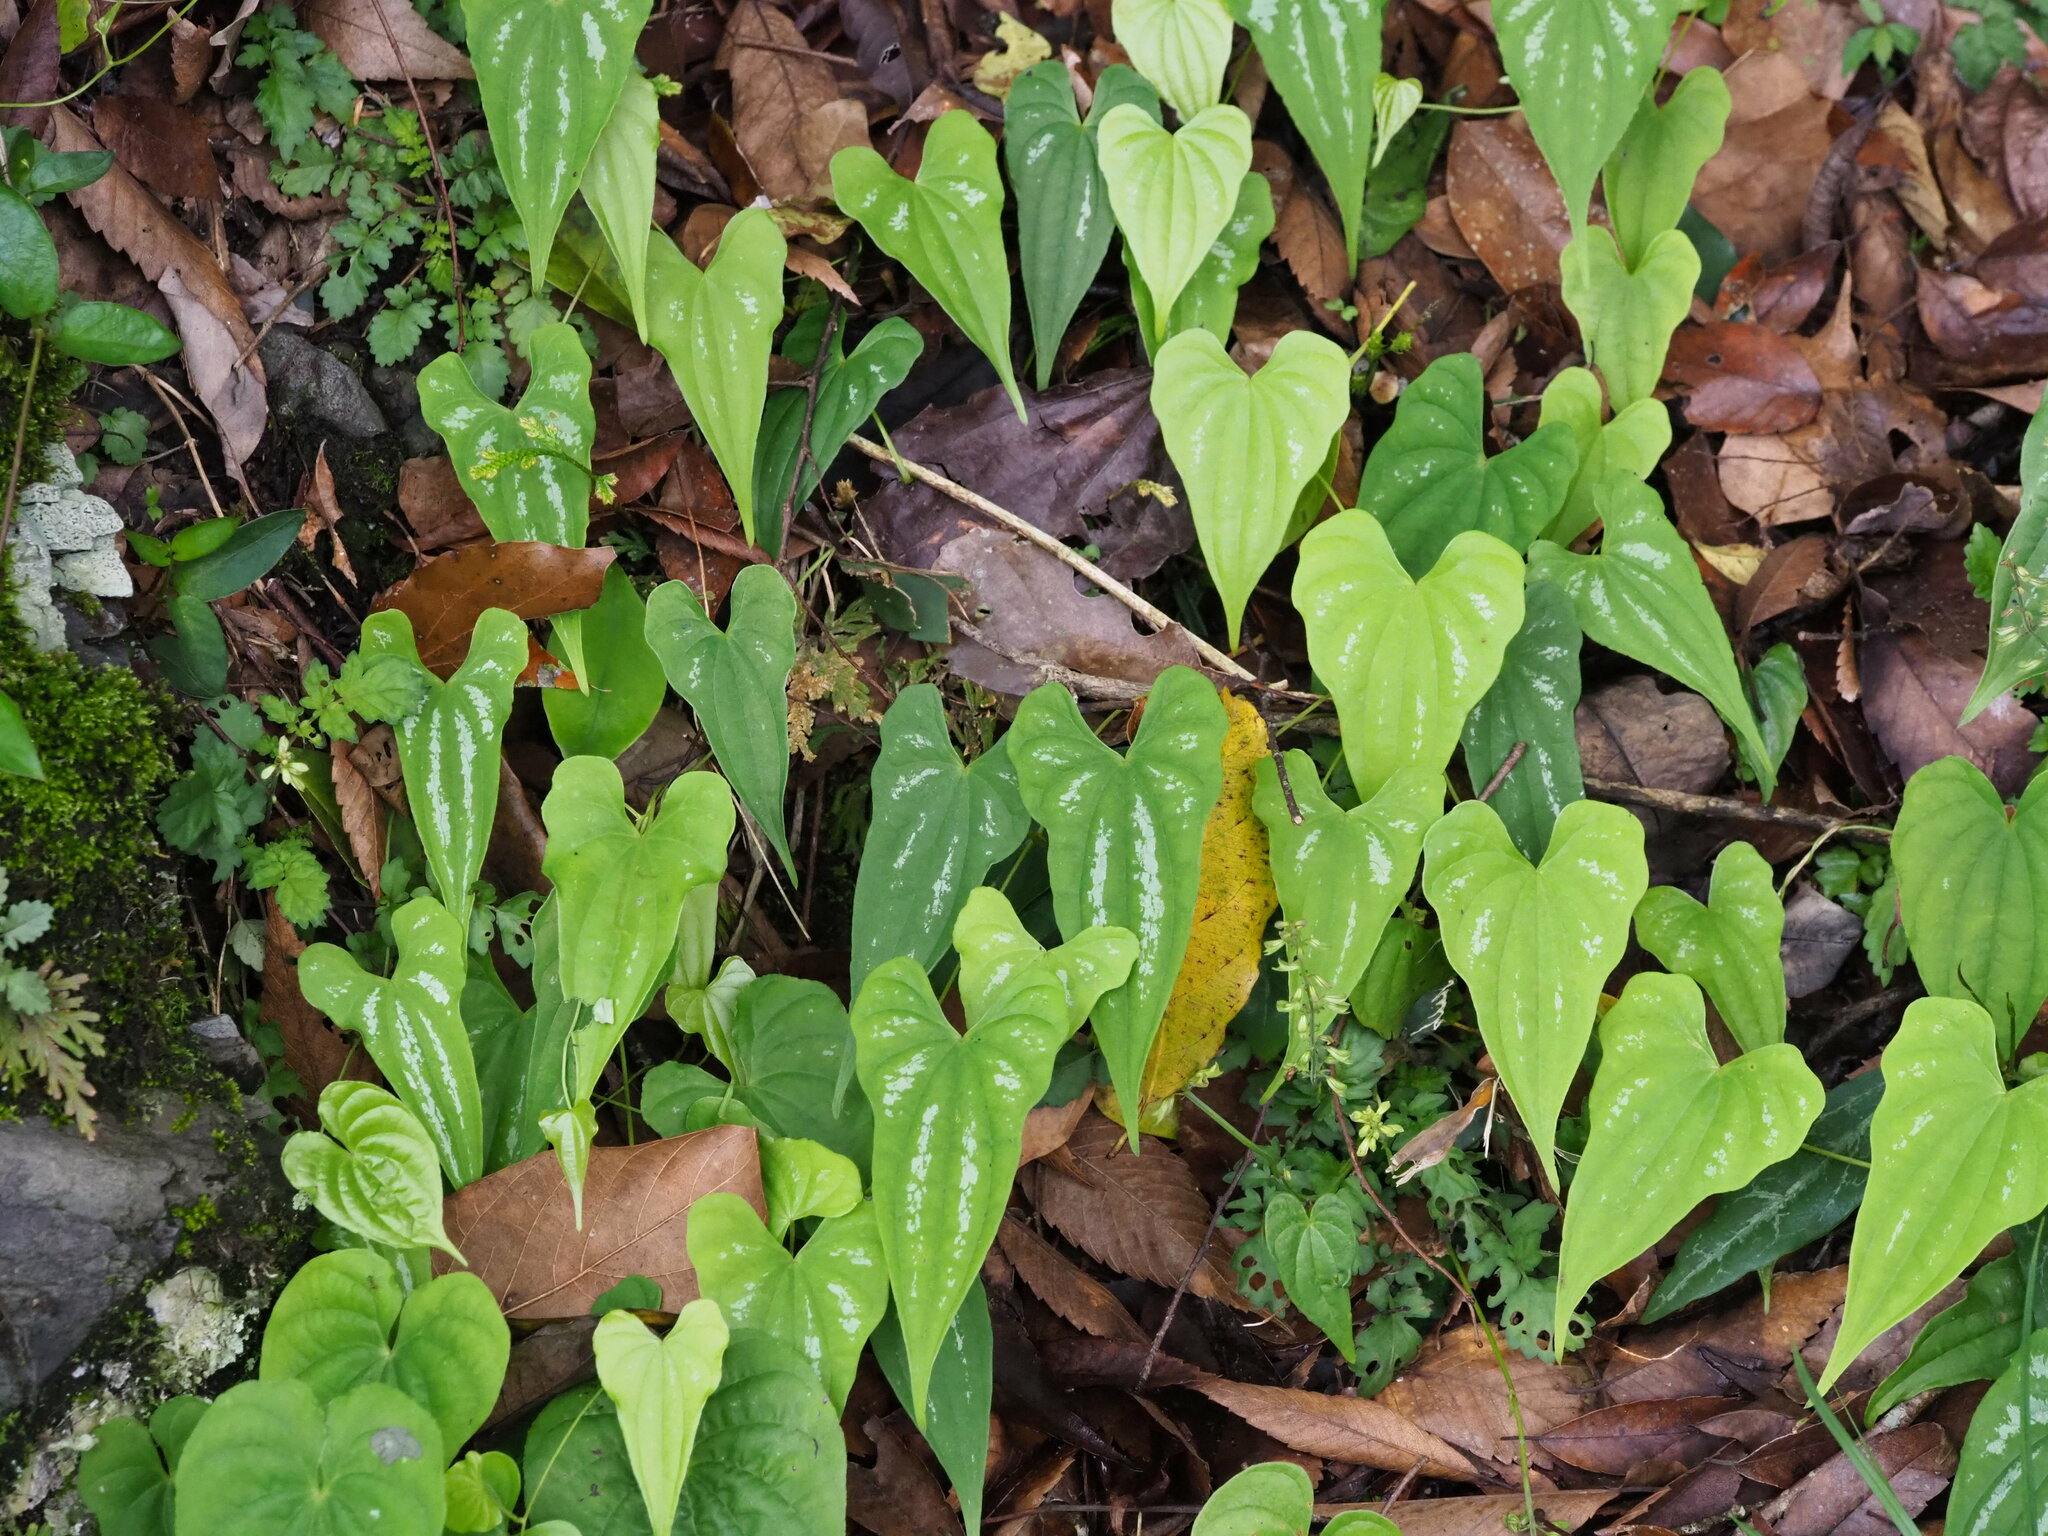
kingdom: Plantae
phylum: Tracheophyta
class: Liliopsida
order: Dioscoreales
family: Dioscoreaceae
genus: Dioscorea
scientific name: Dioscorea collettii
